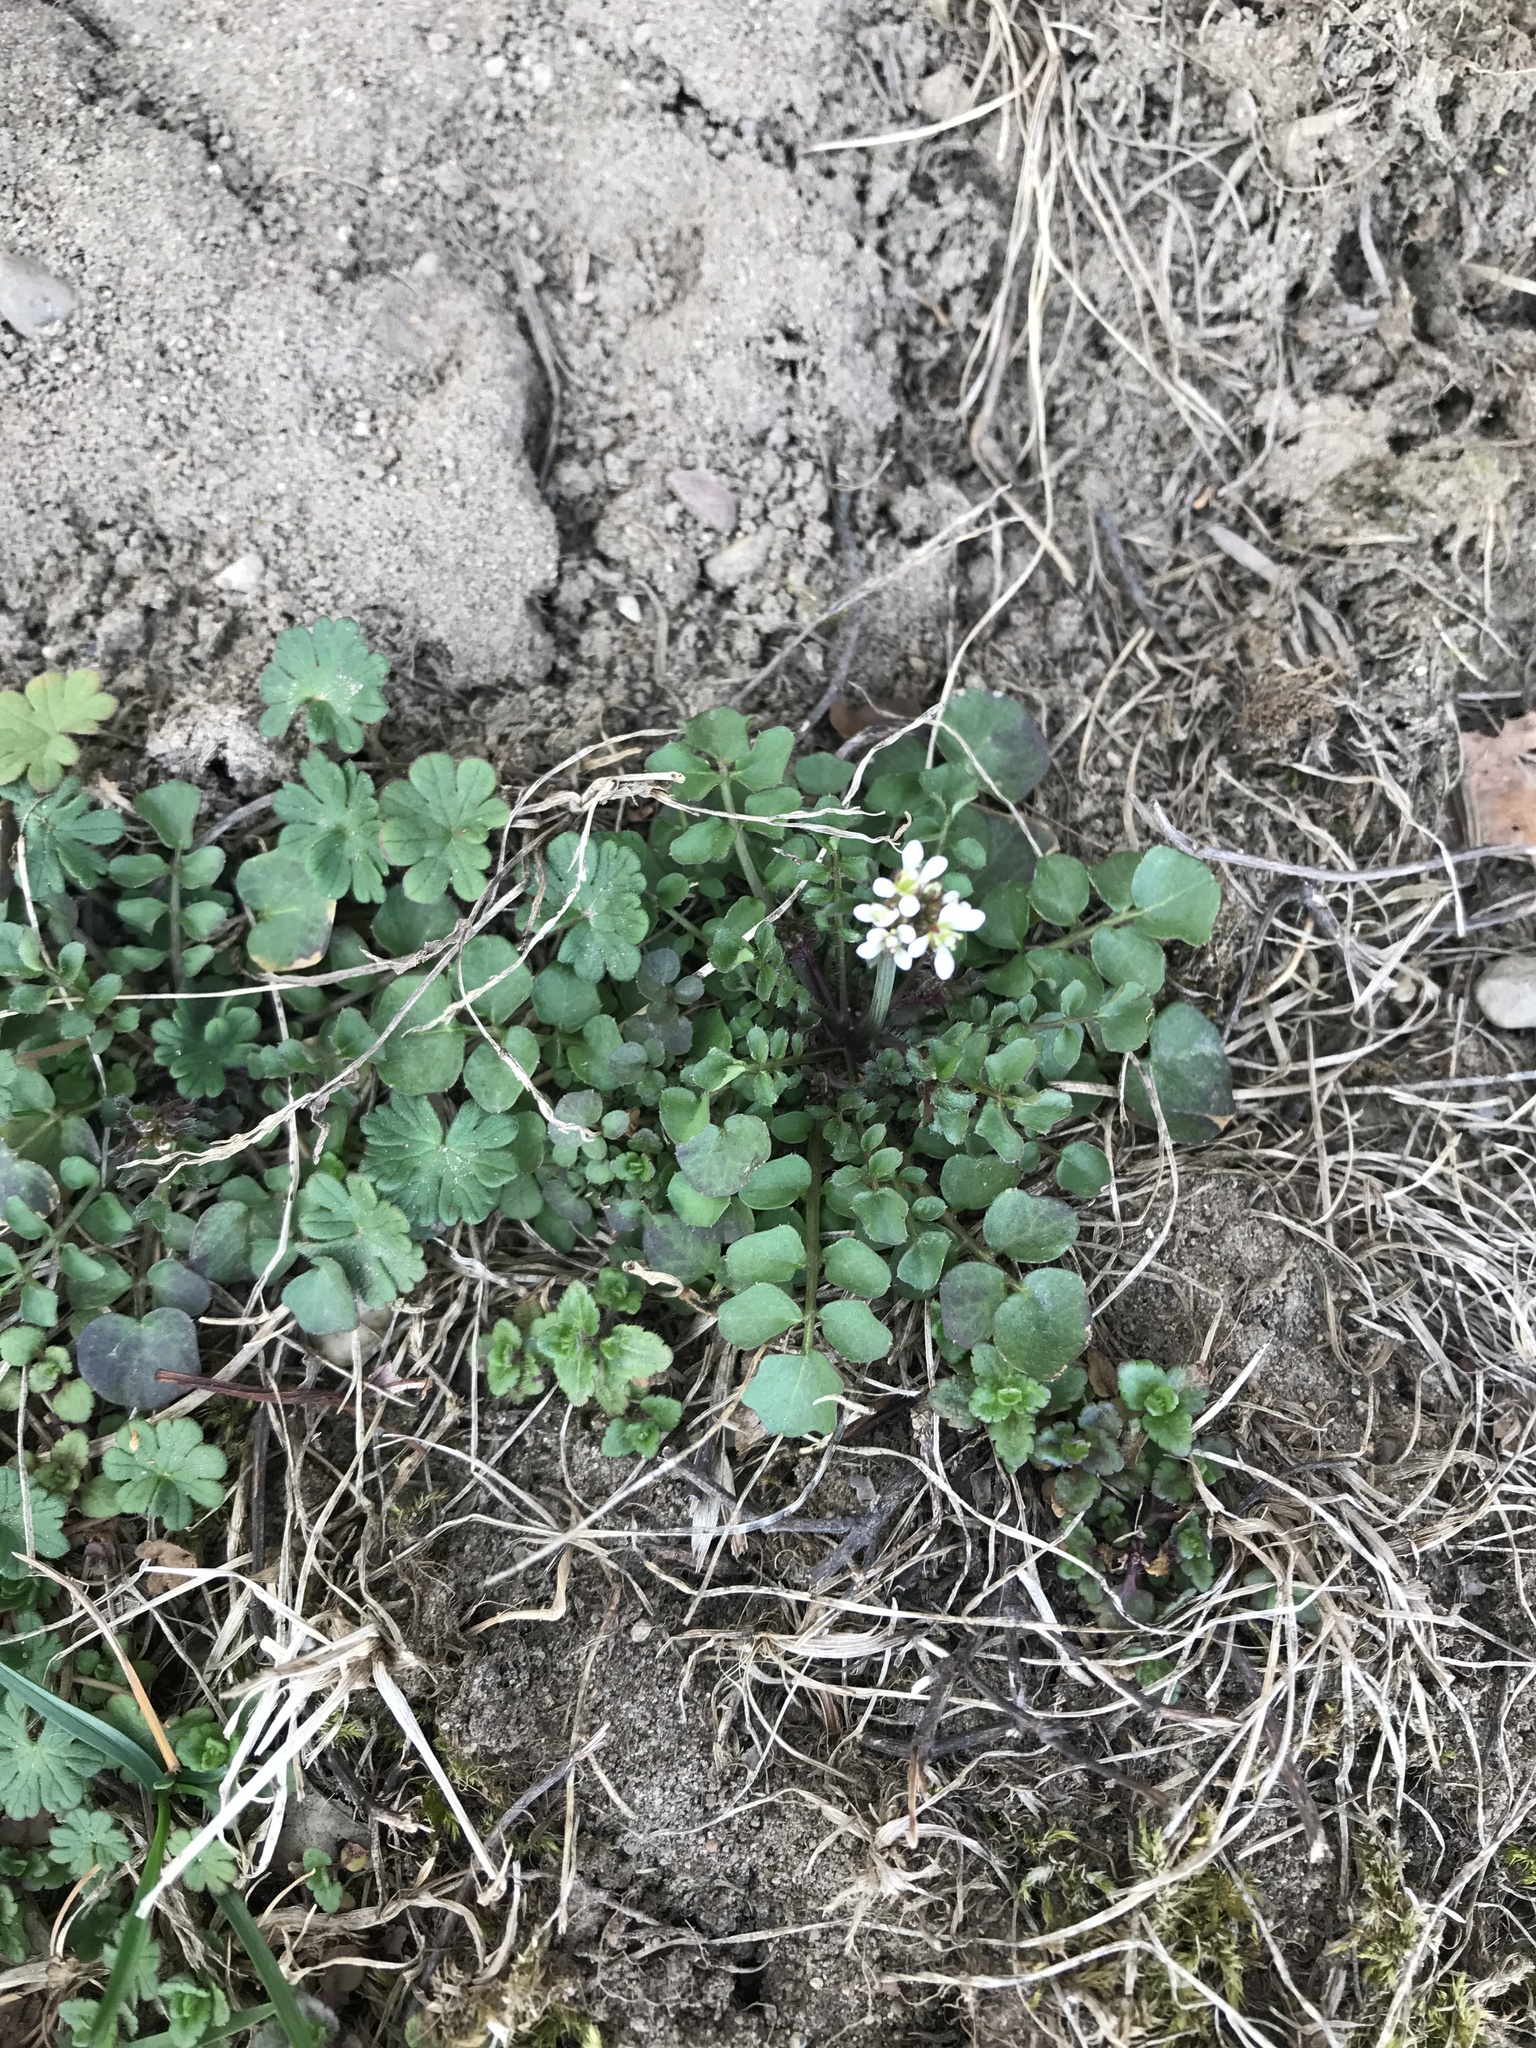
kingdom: Plantae
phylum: Tracheophyta
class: Magnoliopsida
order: Brassicales
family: Brassicaceae
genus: Cardamine
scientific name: Cardamine hirsuta
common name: Hairy bittercress
